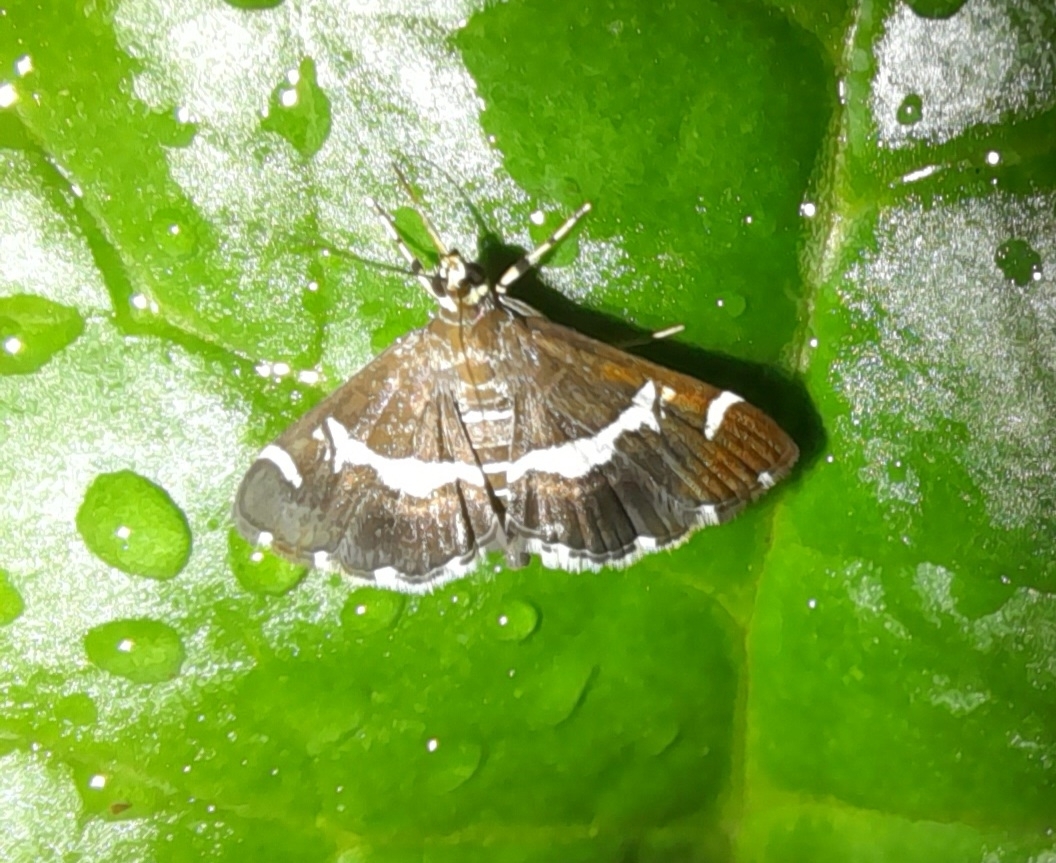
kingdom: Animalia
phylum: Arthropoda
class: Insecta
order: Lepidoptera
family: Crambidae
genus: Spoladea
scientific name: Spoladea recurvalis
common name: Beet webworm moth
